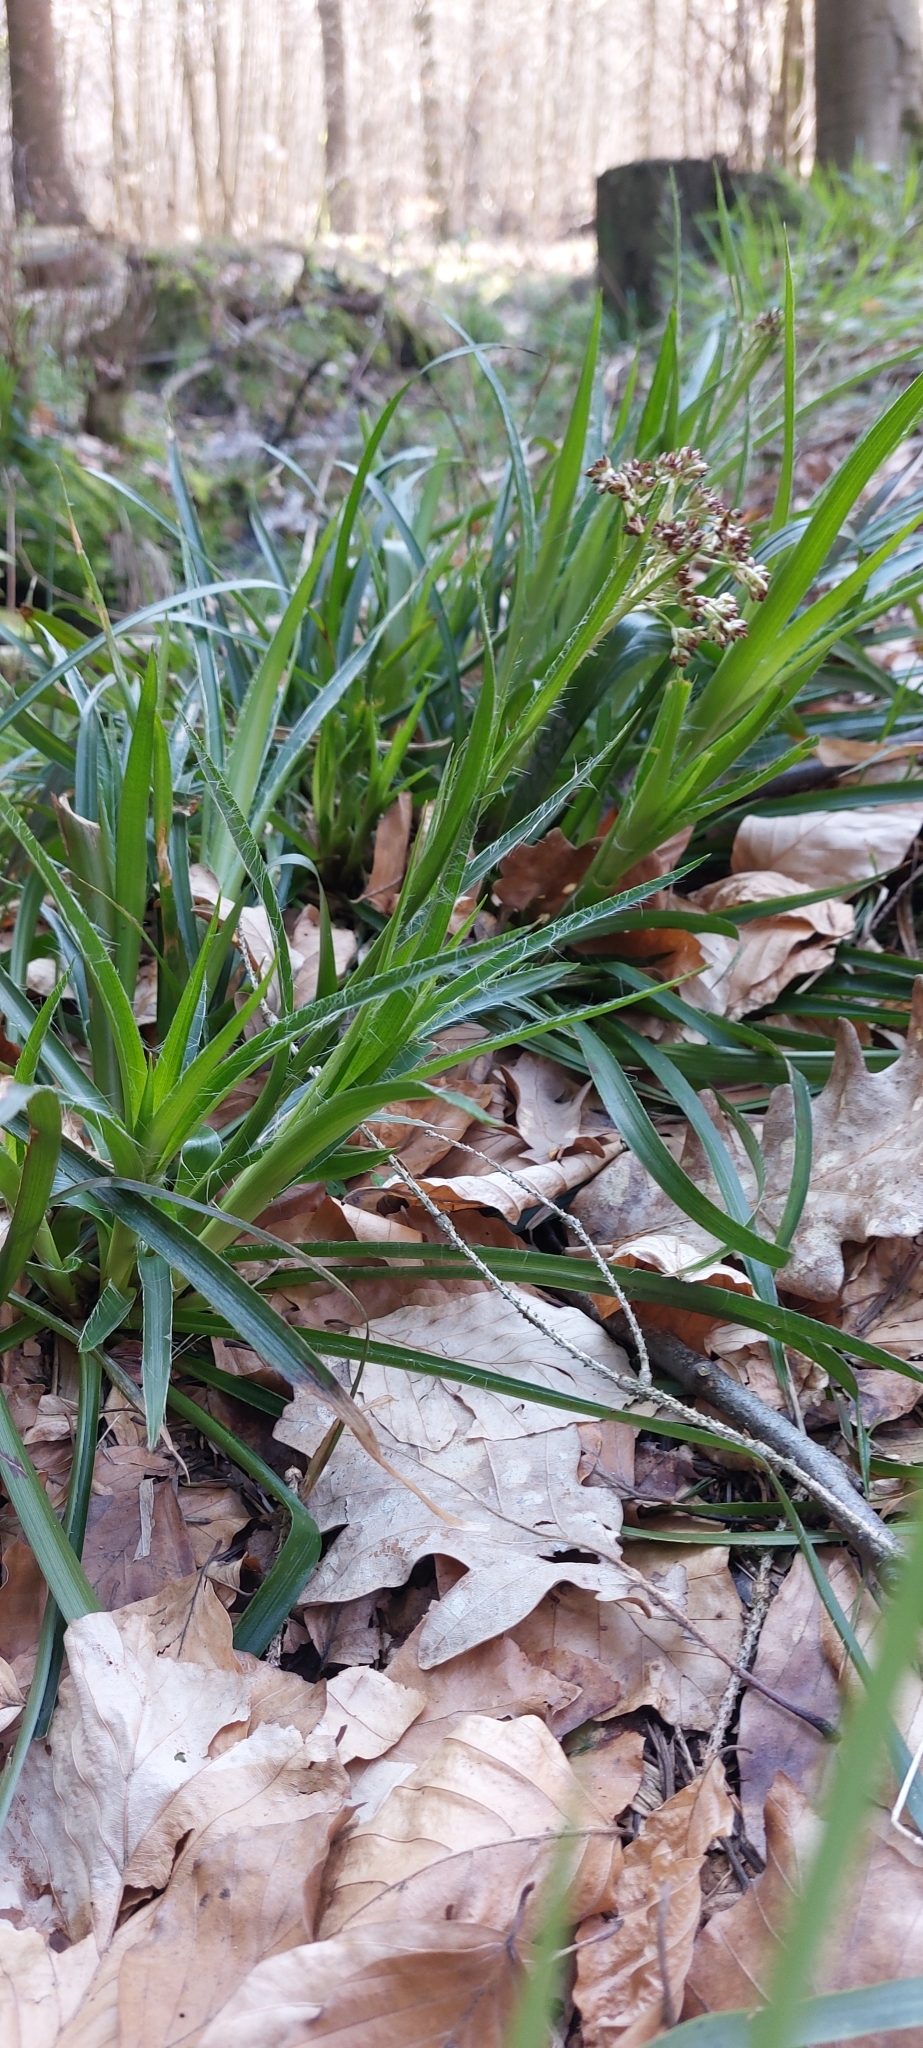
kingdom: Plantae
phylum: Tracheophyta
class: Liliopsida
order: Poales
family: Juncaceae
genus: Luzula
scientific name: Luzula sylvatica
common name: Great wood-rush
